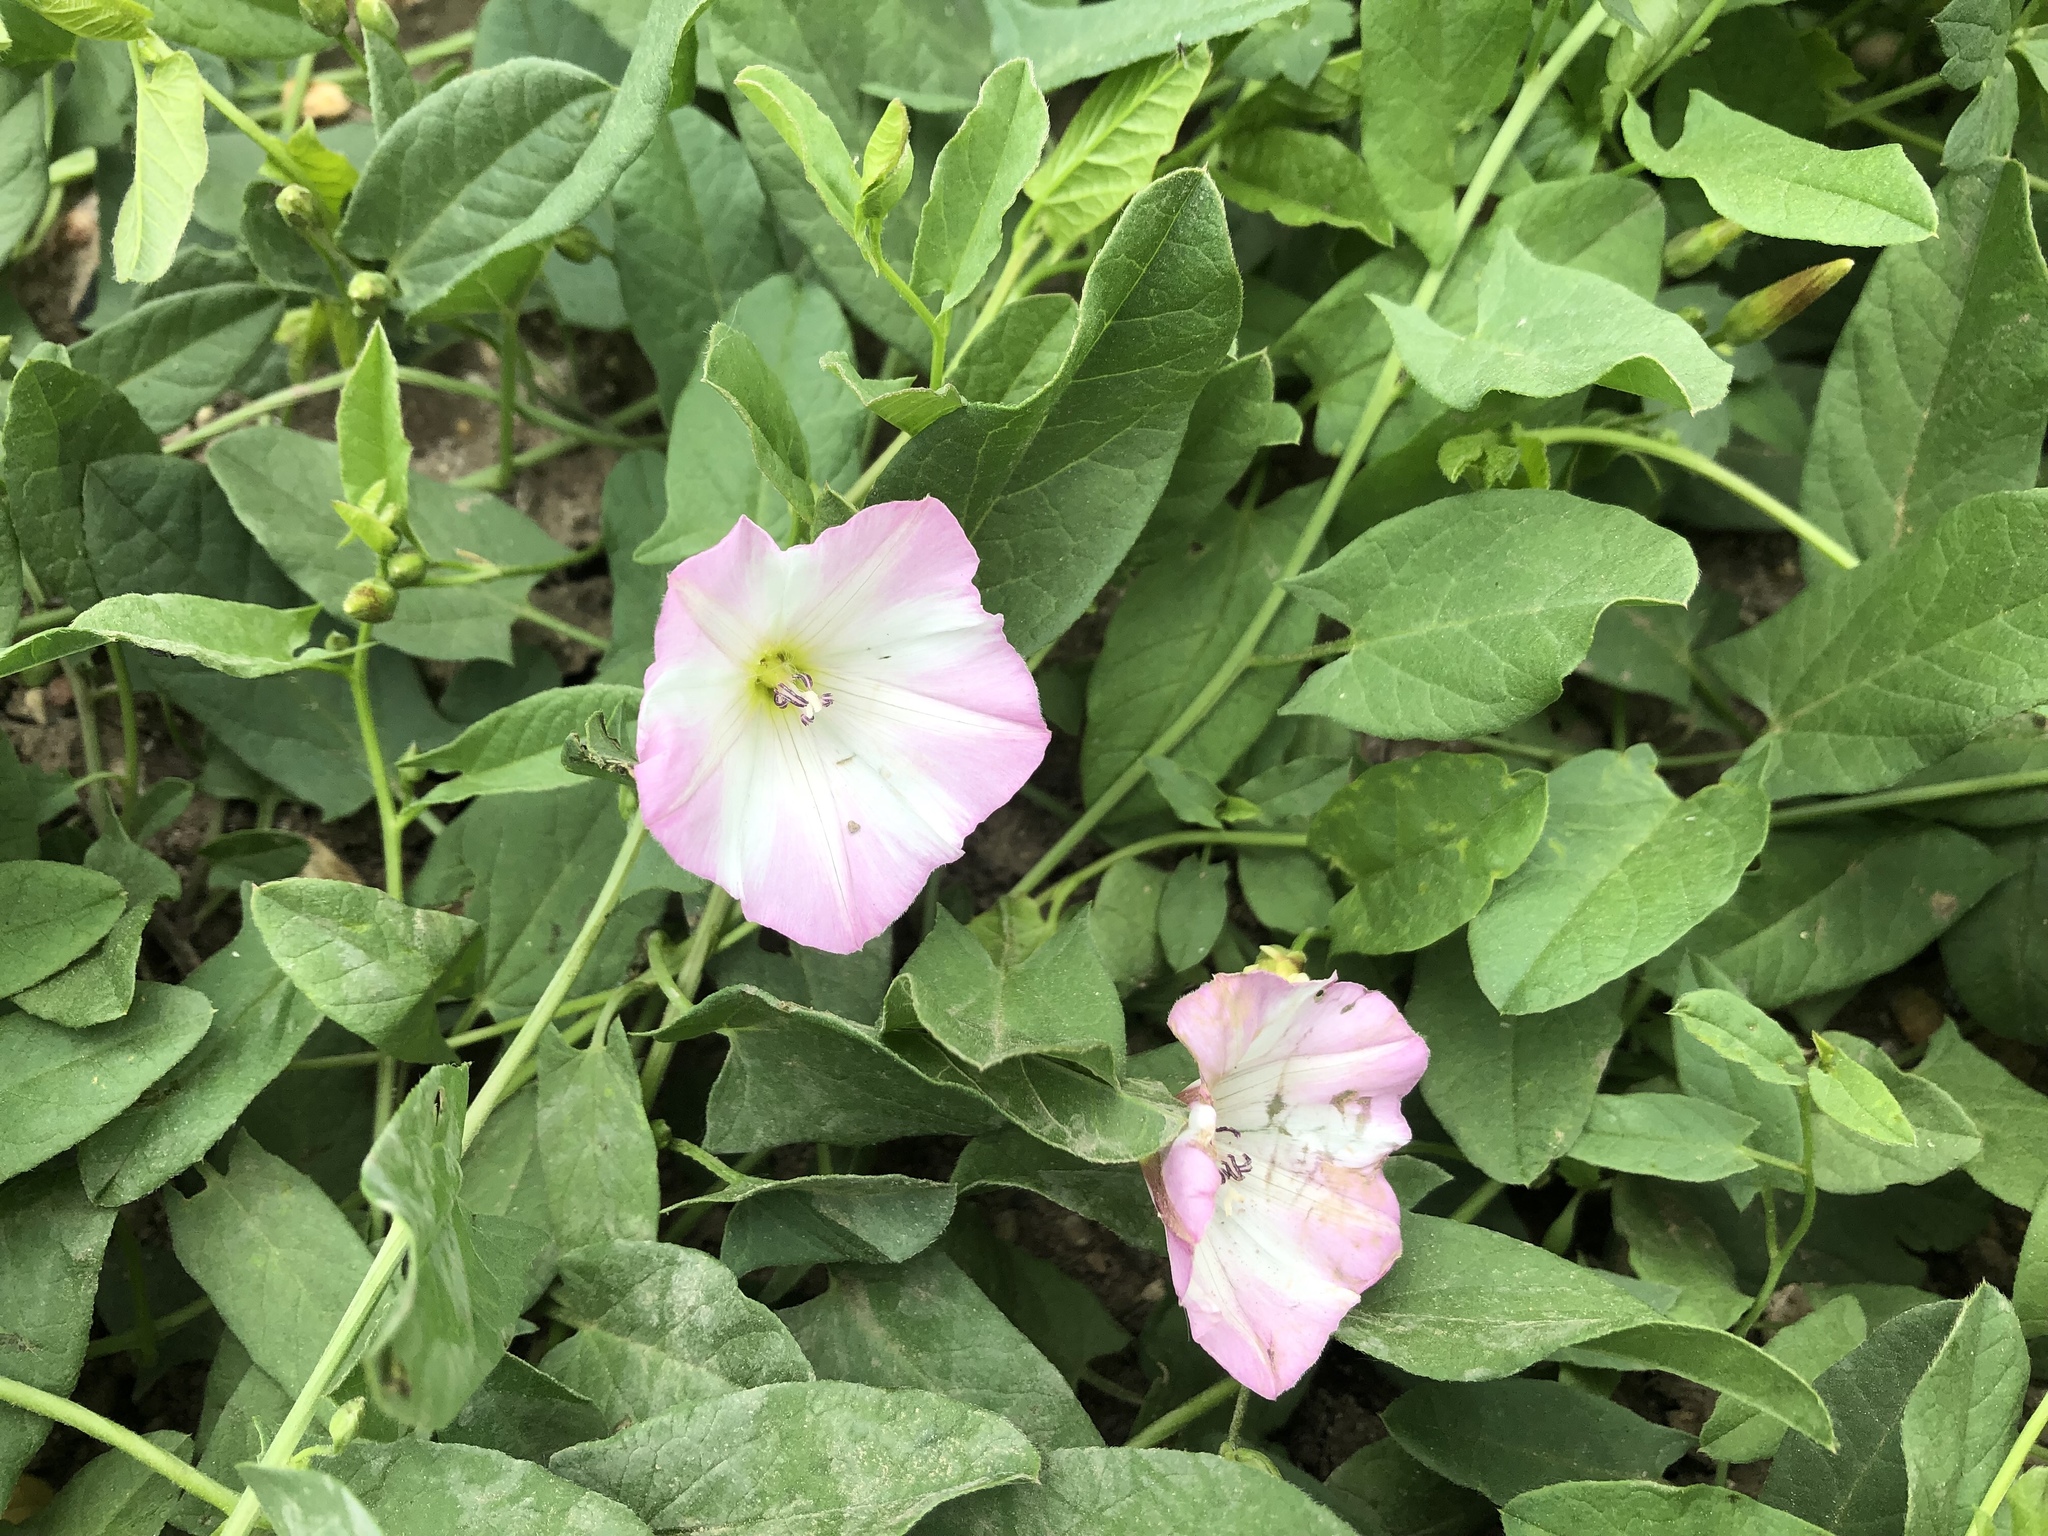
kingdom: Plantae
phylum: Tracheophyta
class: Magnoliopsida
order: Solanales
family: Convolvulaceae
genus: Convolvulus
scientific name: Convolvulus arvensis
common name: Field bindweed
